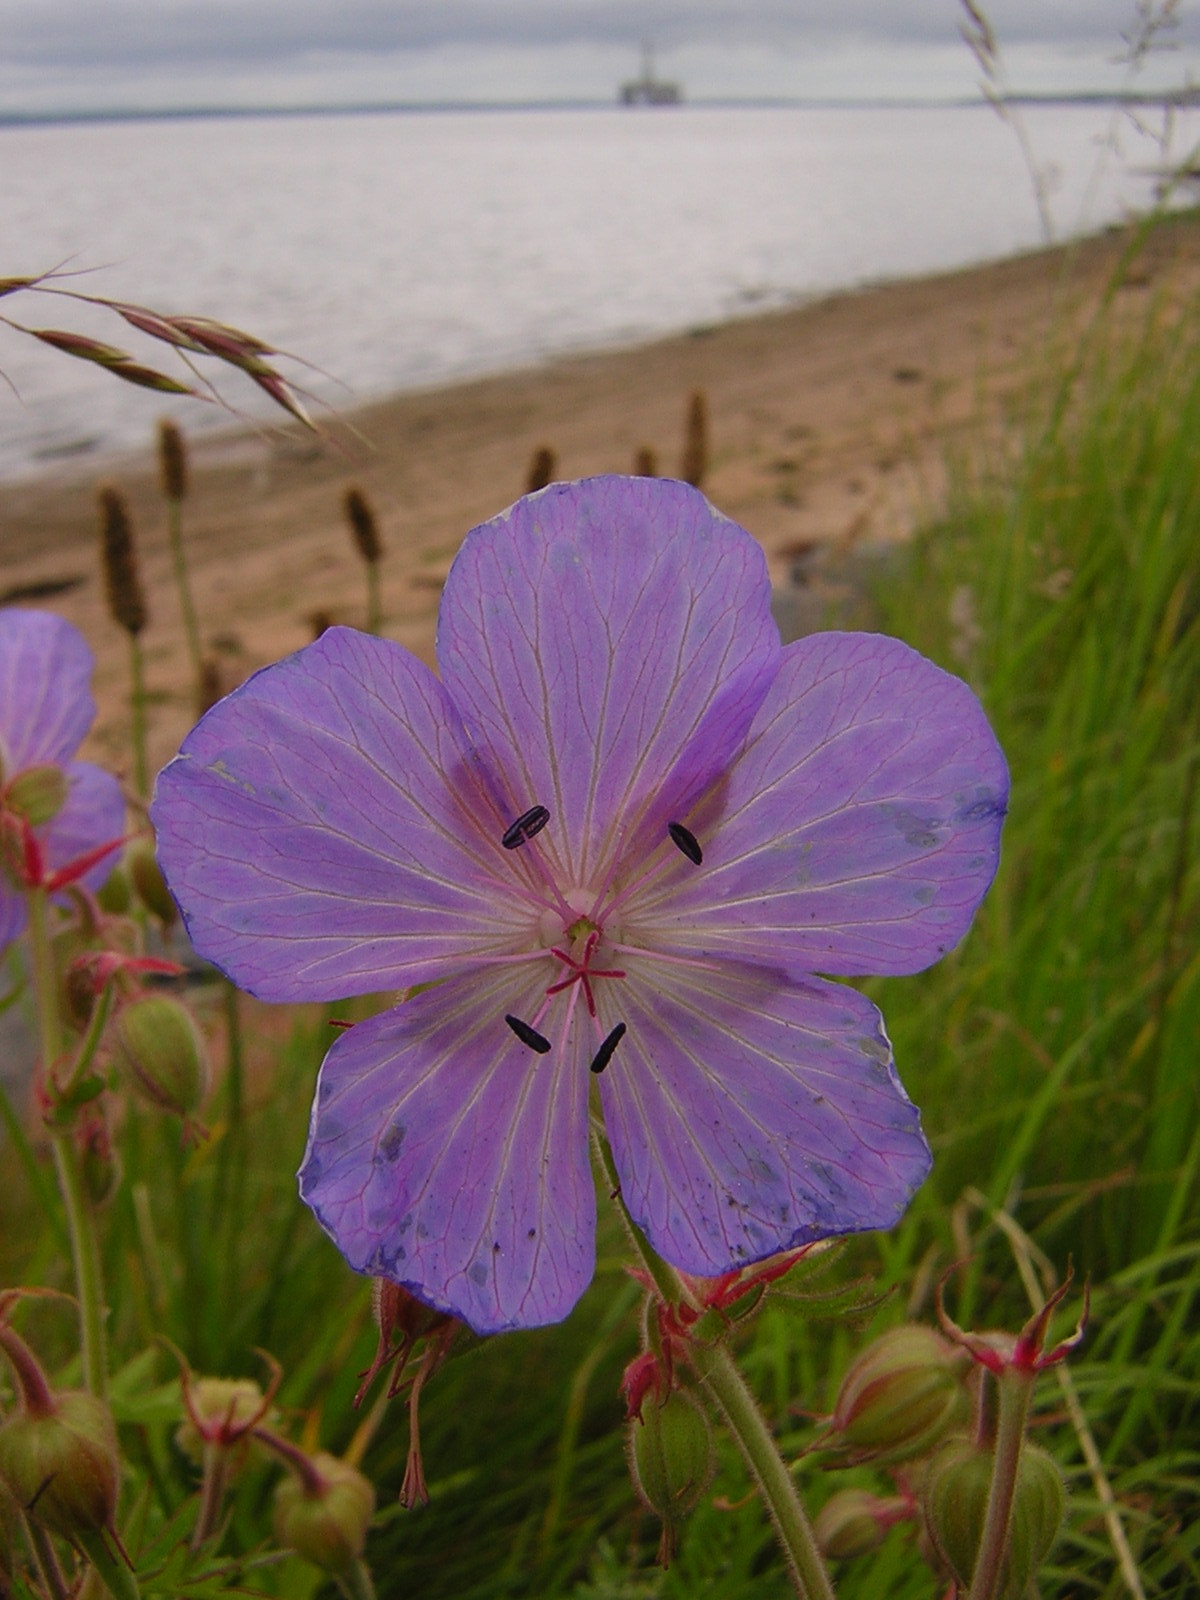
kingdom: Plantae
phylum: Tracheophyta
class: Magnoliopsida
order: Geraniales
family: Geraniaceae
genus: Geranium
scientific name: Geranium pratense
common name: Meadow crane's-bill
